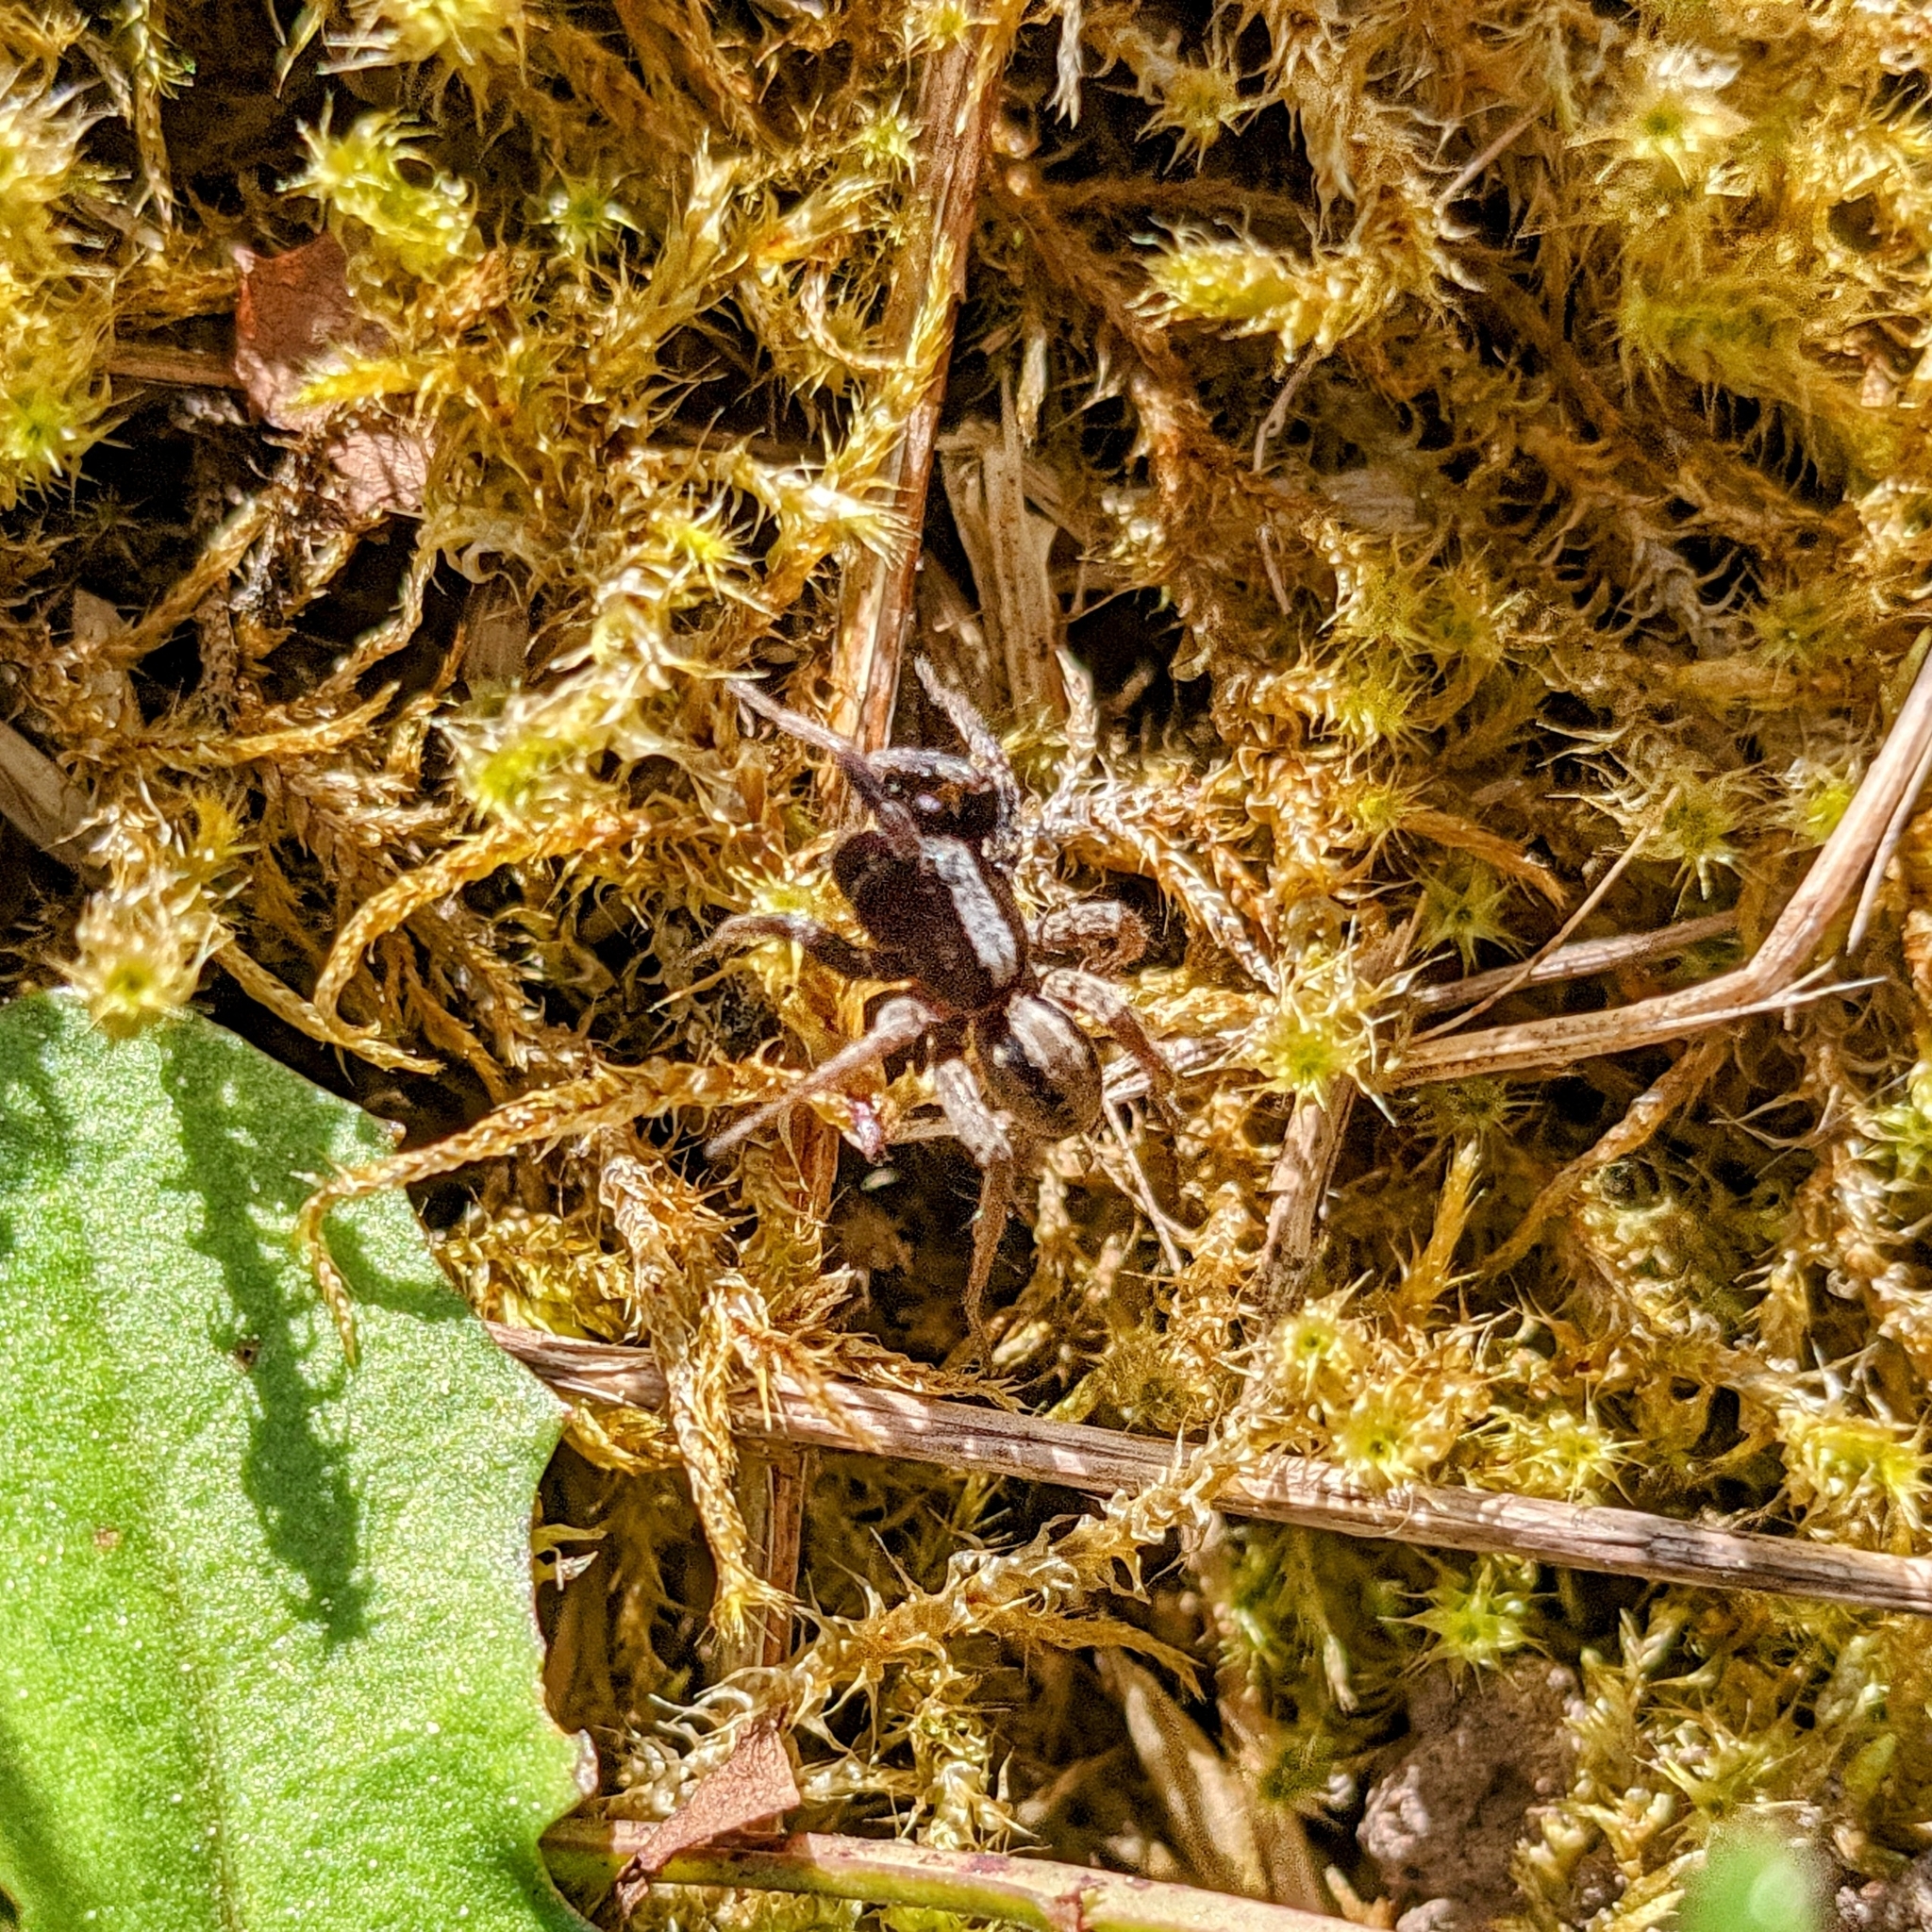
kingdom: Animalia
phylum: Arthropoda
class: Arachnida
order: Araneae
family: Lycosidae
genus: Alopecosa
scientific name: Alopecosa
